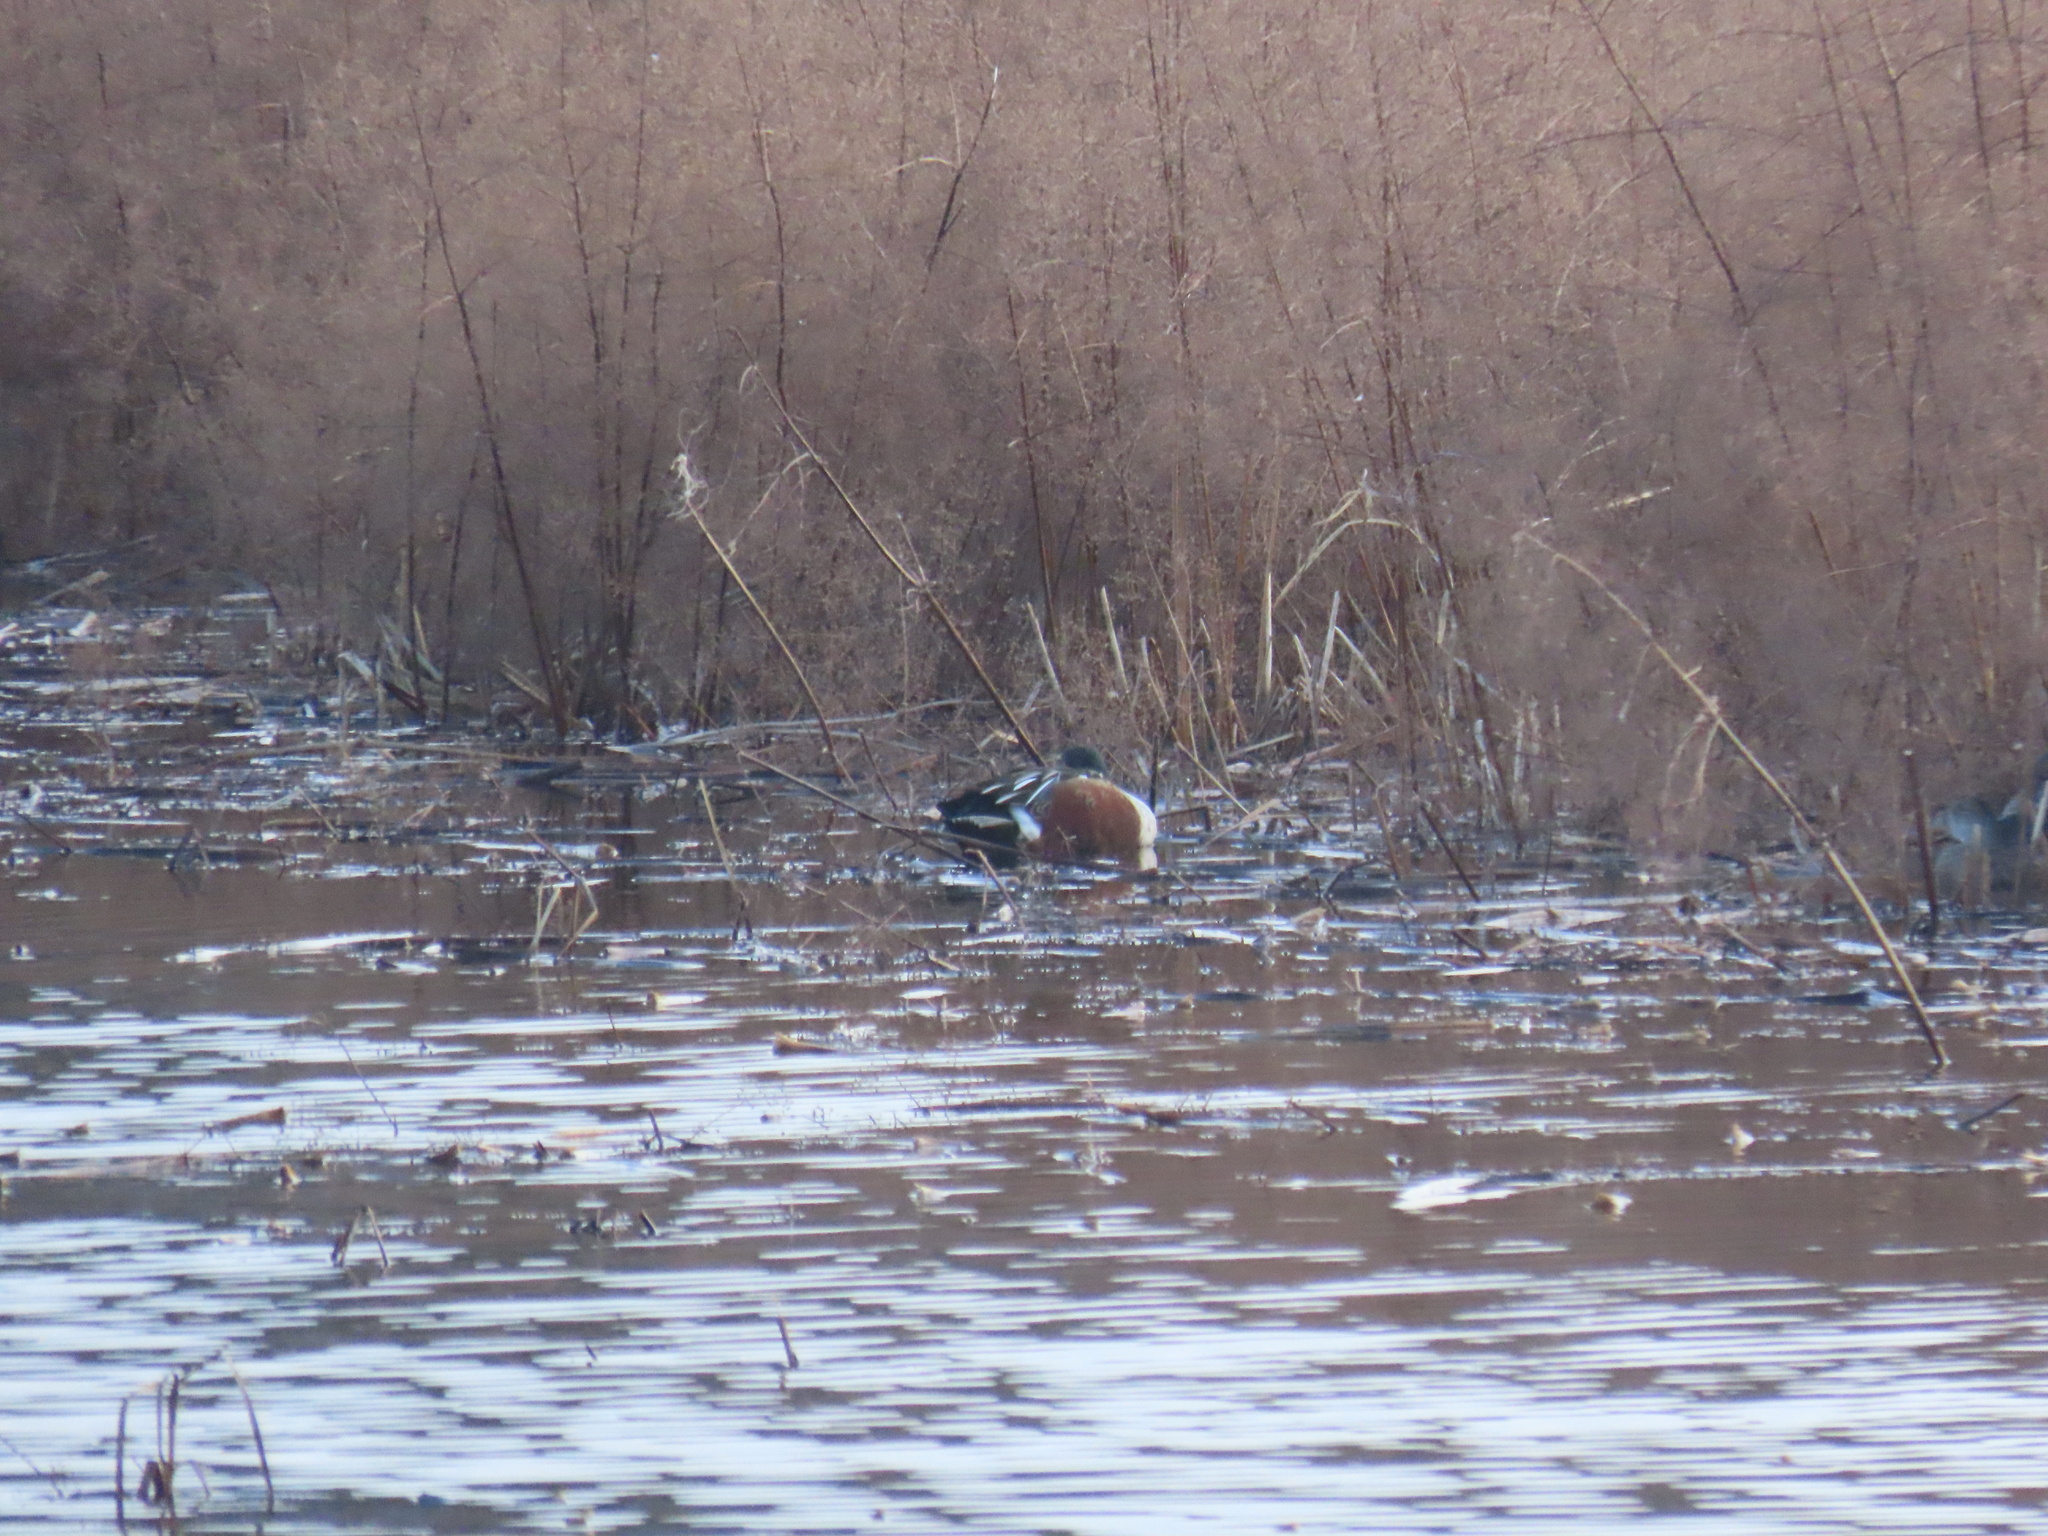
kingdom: Animalia
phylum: Chordata
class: Aves
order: Anseriformes
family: Anatidae
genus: Spatula
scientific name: Spatula clypeata
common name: Northern shoveler
